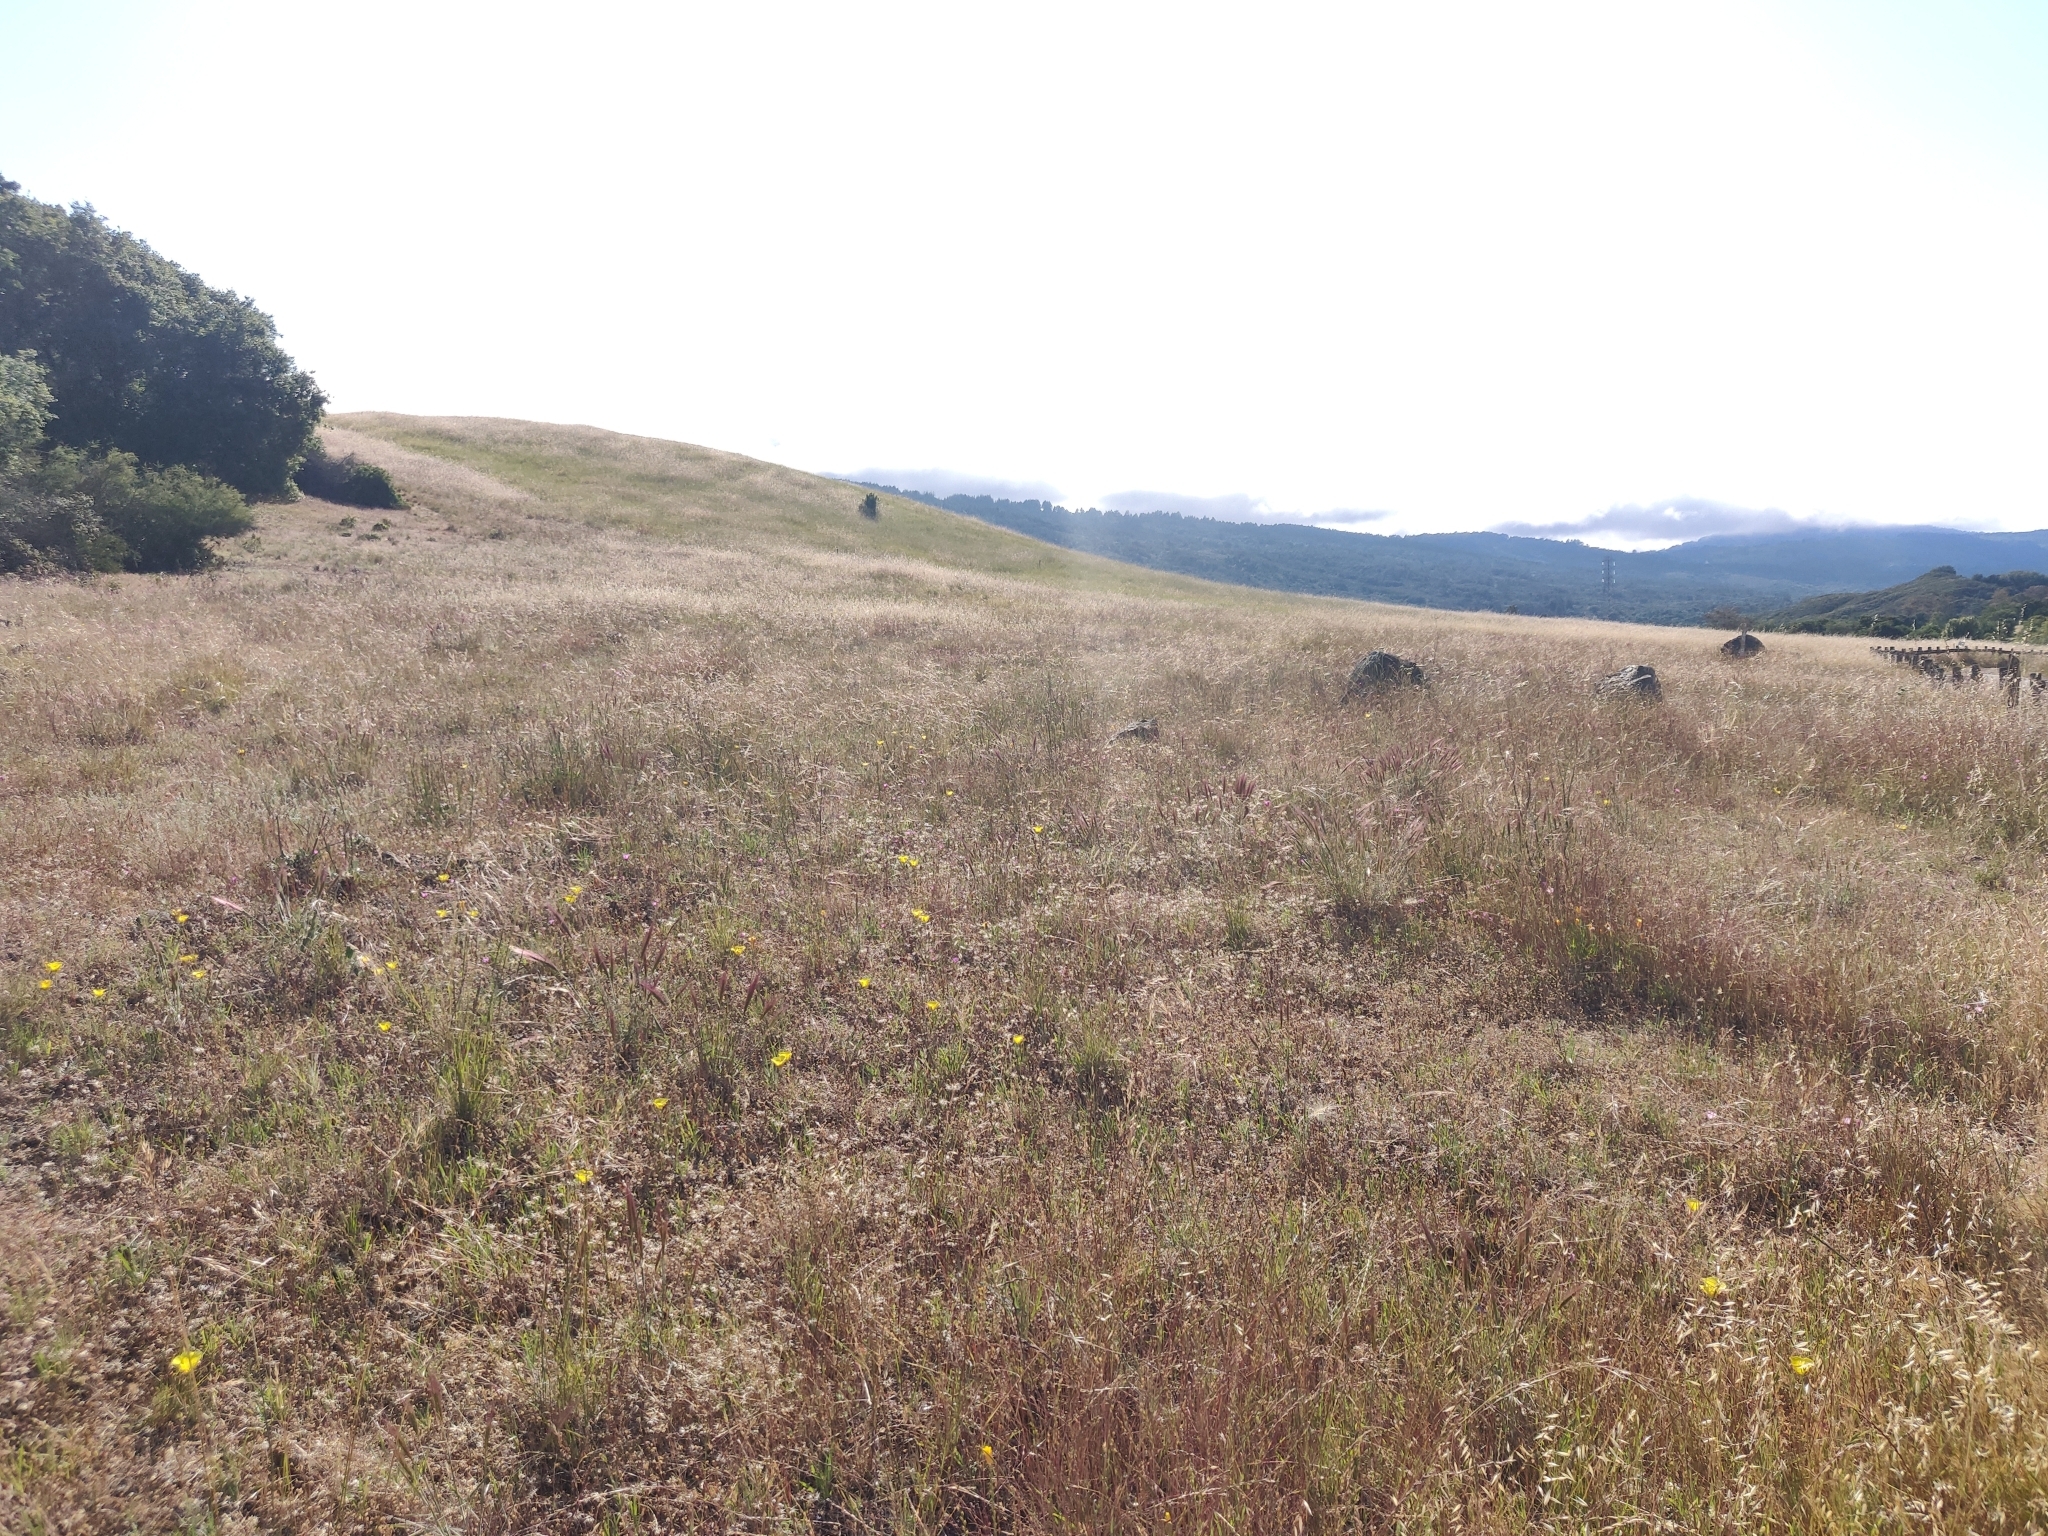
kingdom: Plantae
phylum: Tracheophyta
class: Magnoliopsida
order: Malvales
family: Malvaceae
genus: Sidalcea
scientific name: Sidalcea diploscypha
